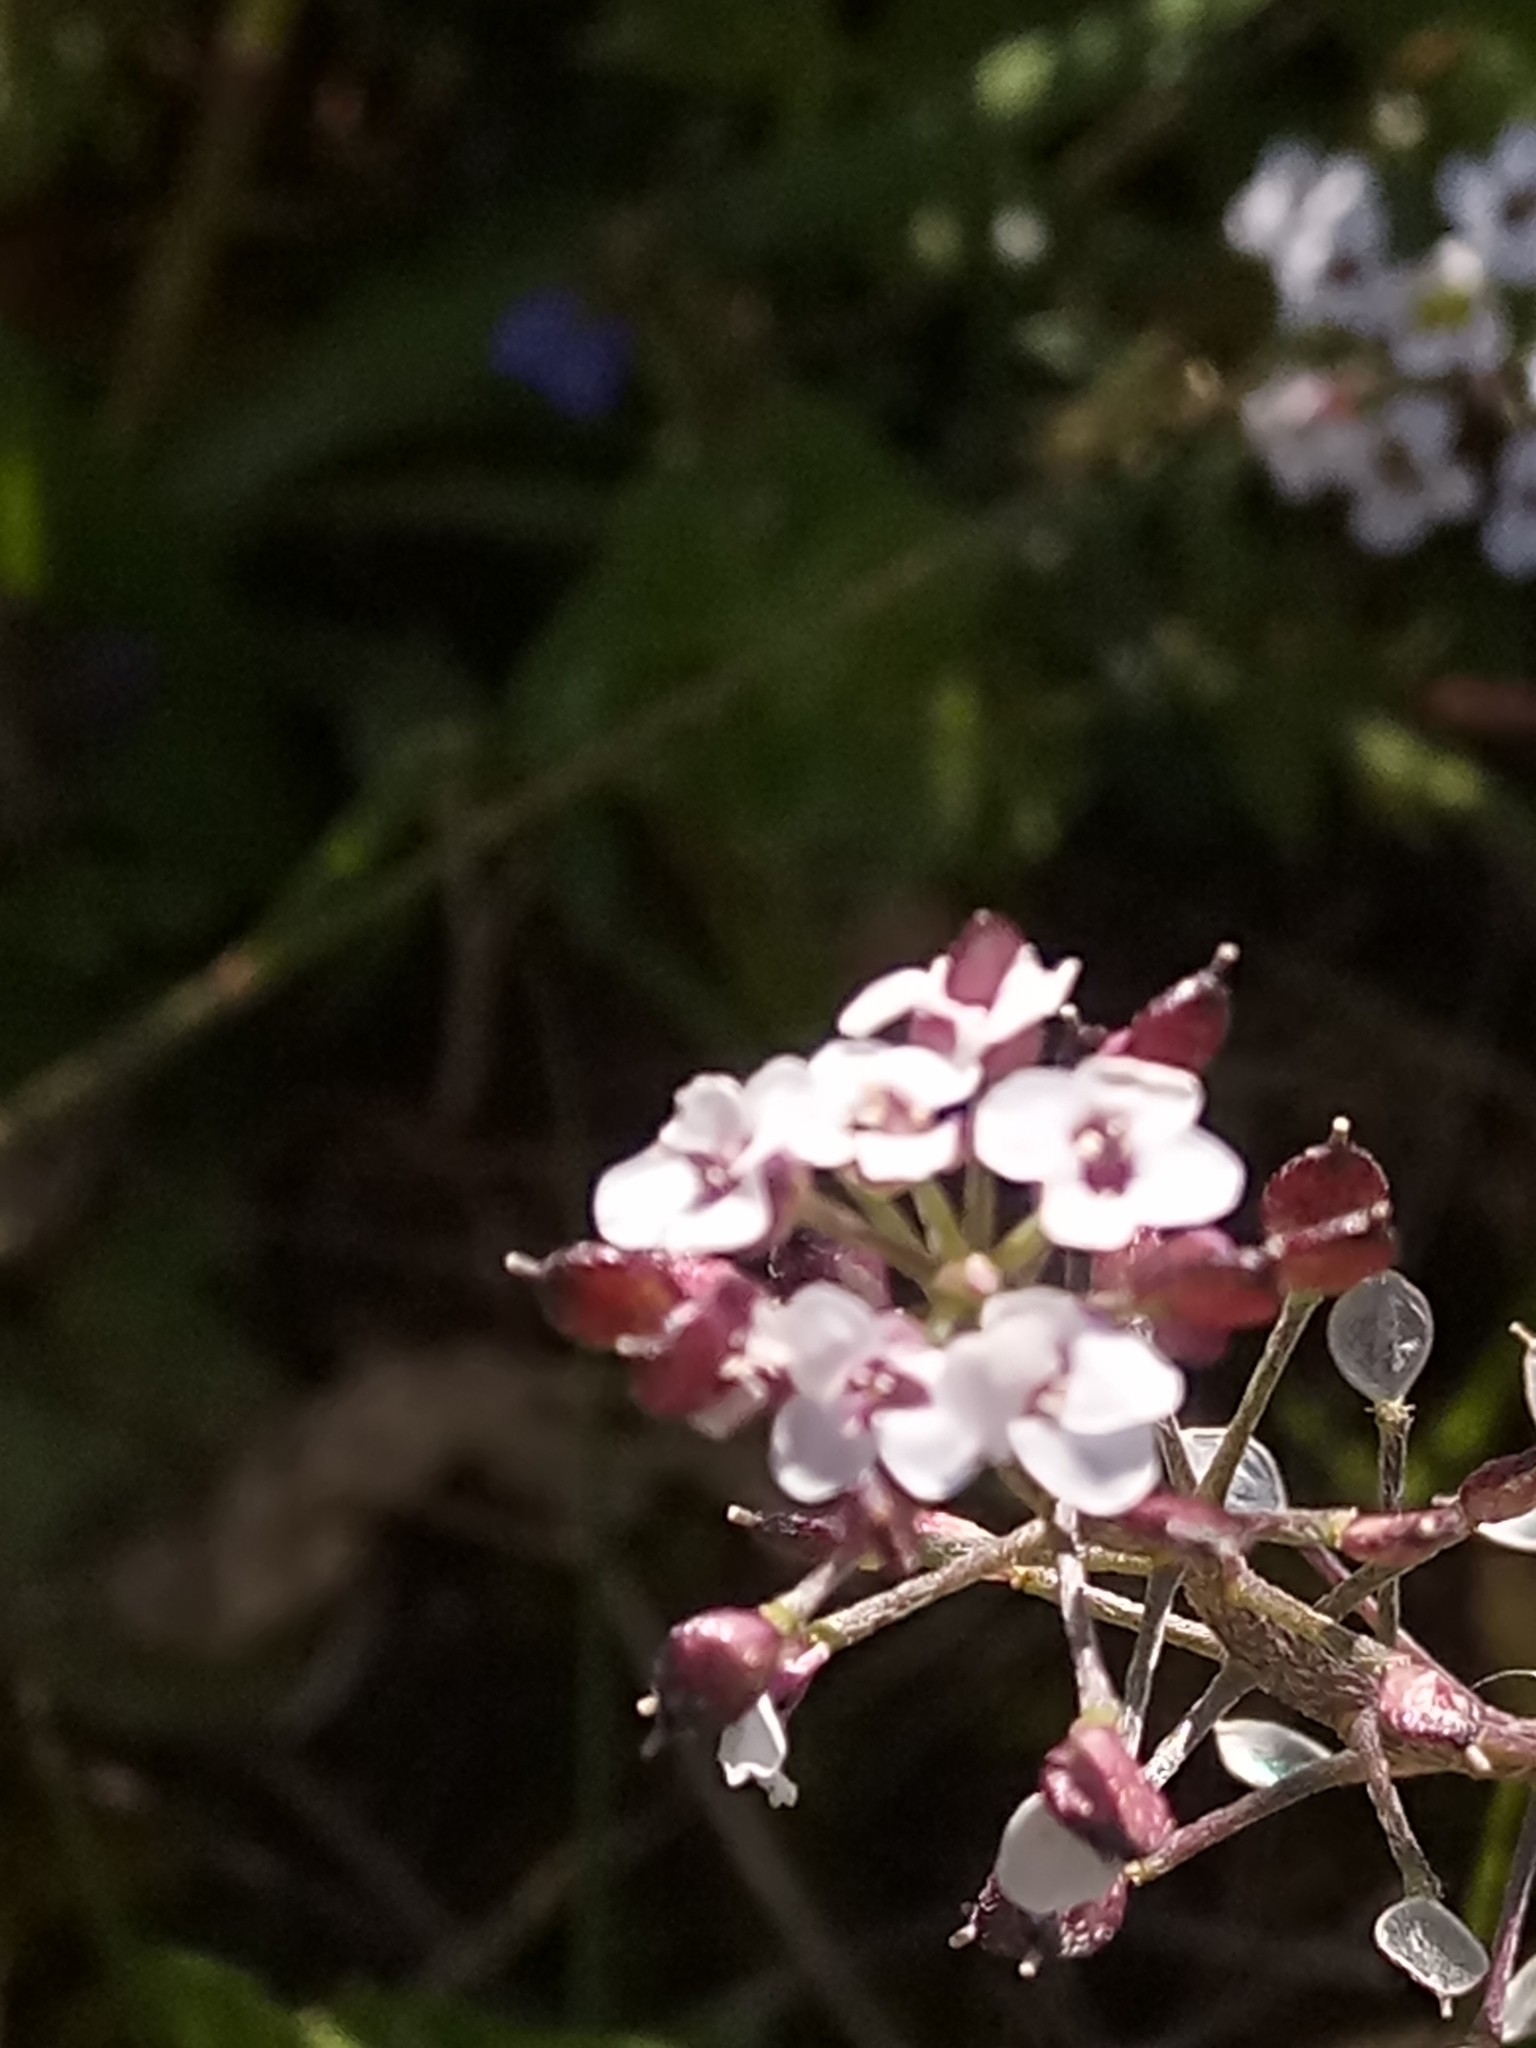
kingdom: Plantae
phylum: Tracheophyta
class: Magnoliopsida
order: Brassicales
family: Brassicaceae
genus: Lobularia
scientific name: Lobularia maritima
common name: Sweet alison
